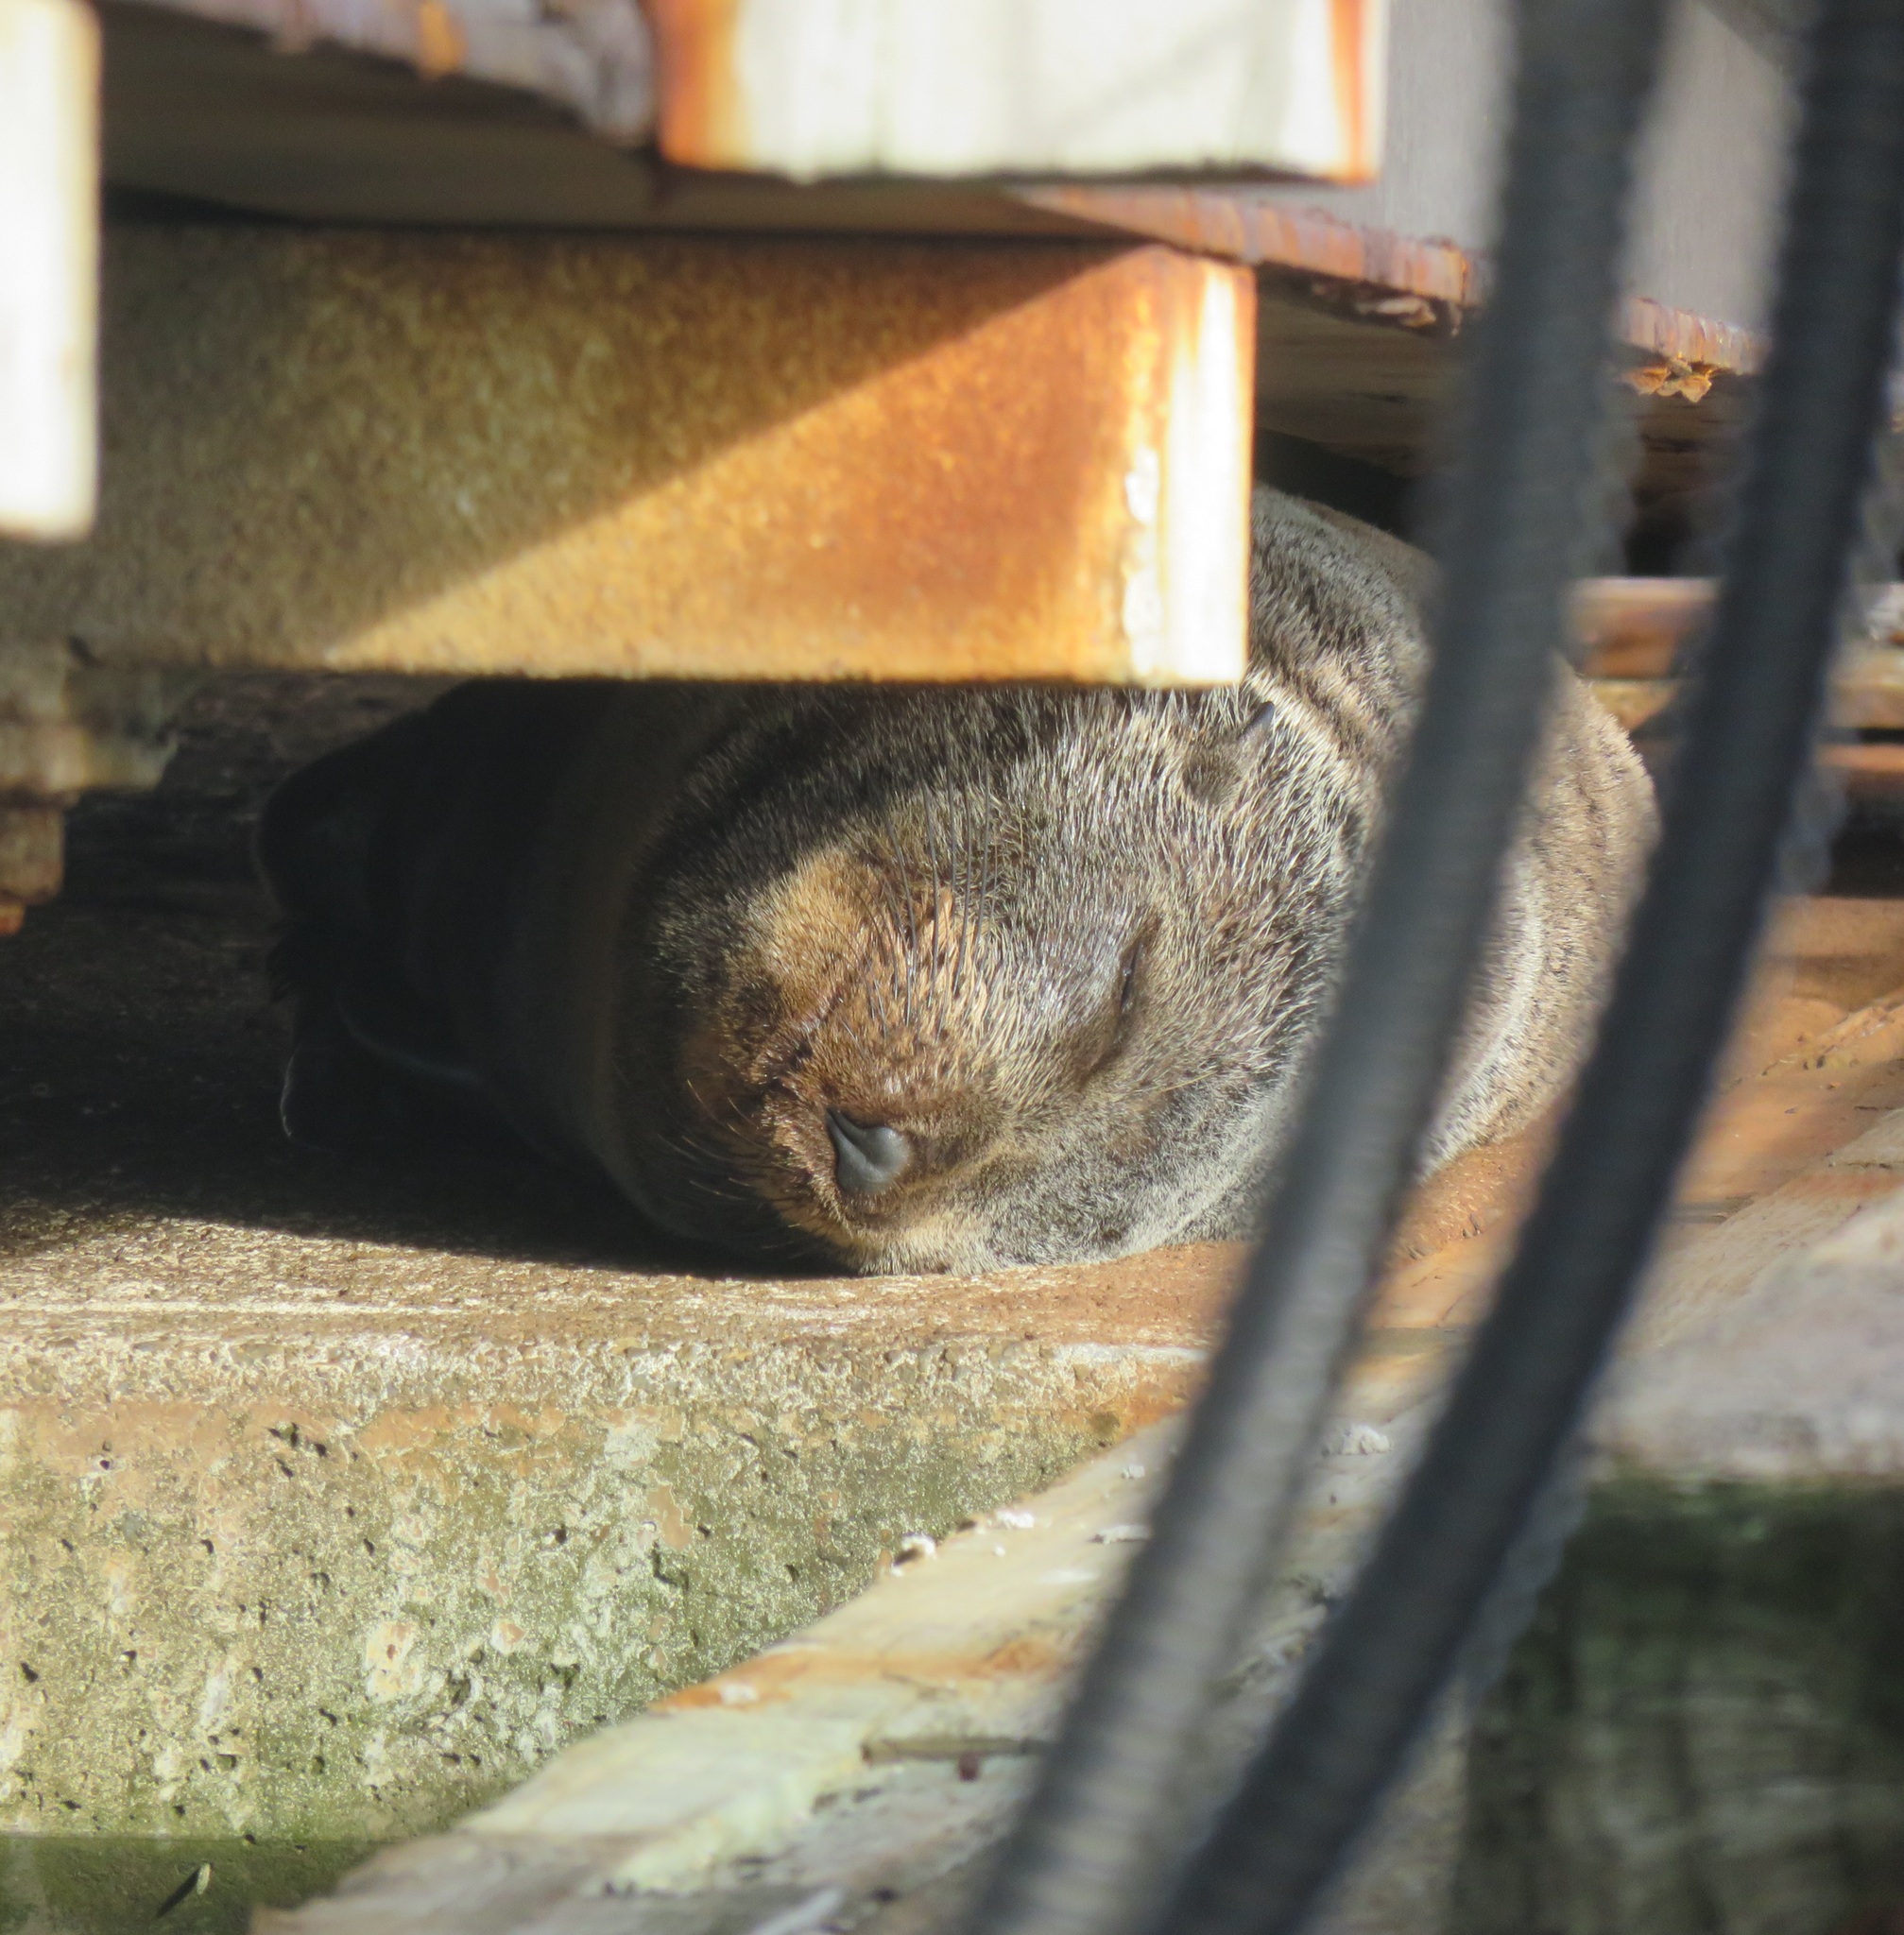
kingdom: Animalia
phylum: Chordata
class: Mammalia
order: Carnivora
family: Otariidae
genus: Arctocephalus
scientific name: Arctocephalus forsteri
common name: New zealand fur seal
